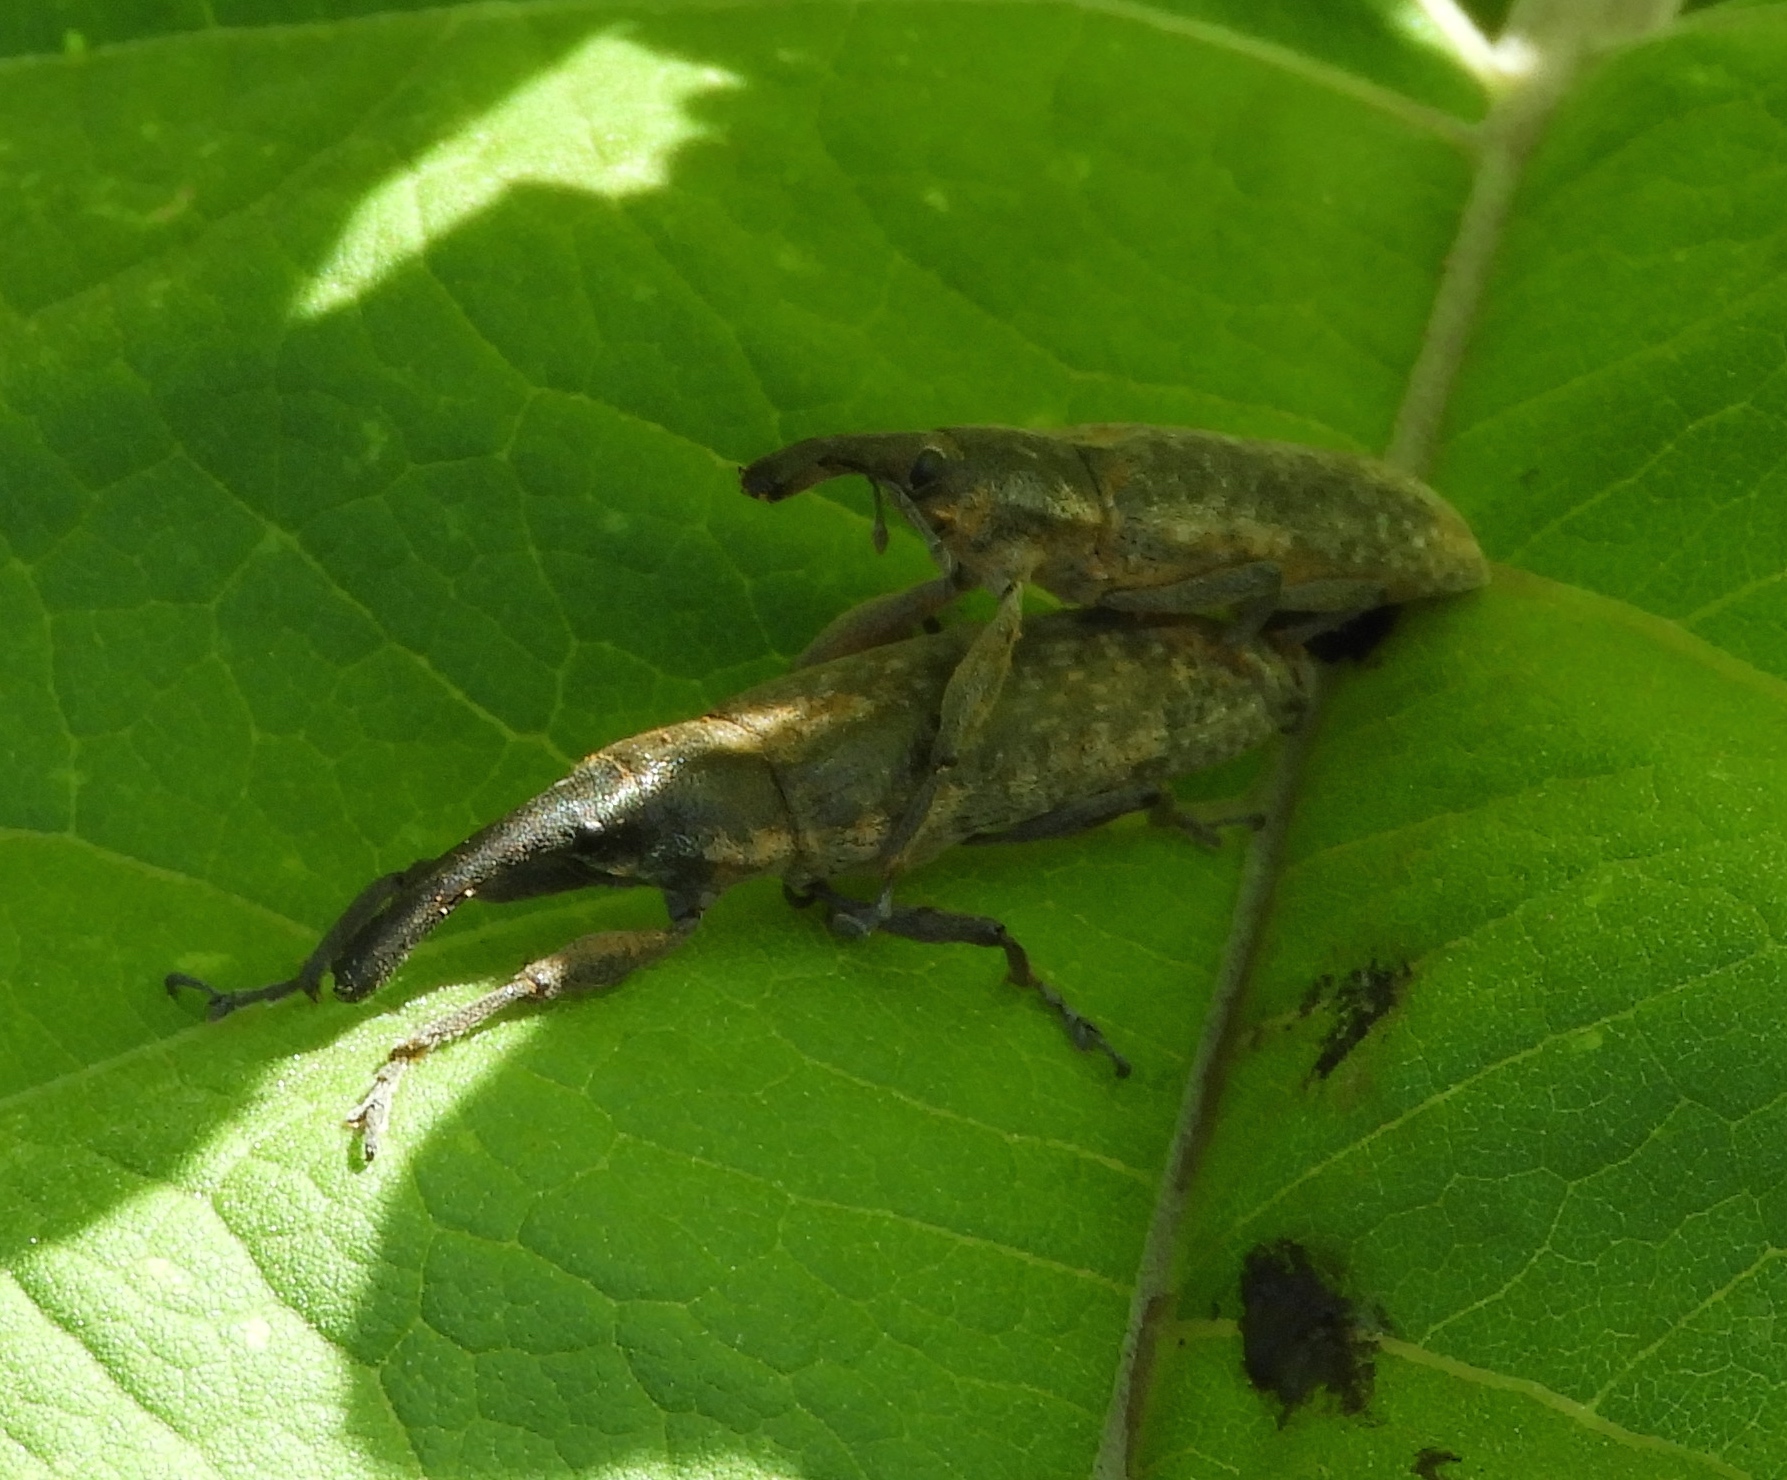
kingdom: Animalia
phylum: Arthropoda
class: Insecta
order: Coleoptera
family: Curculionidae
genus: Lixus
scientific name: Lixus
